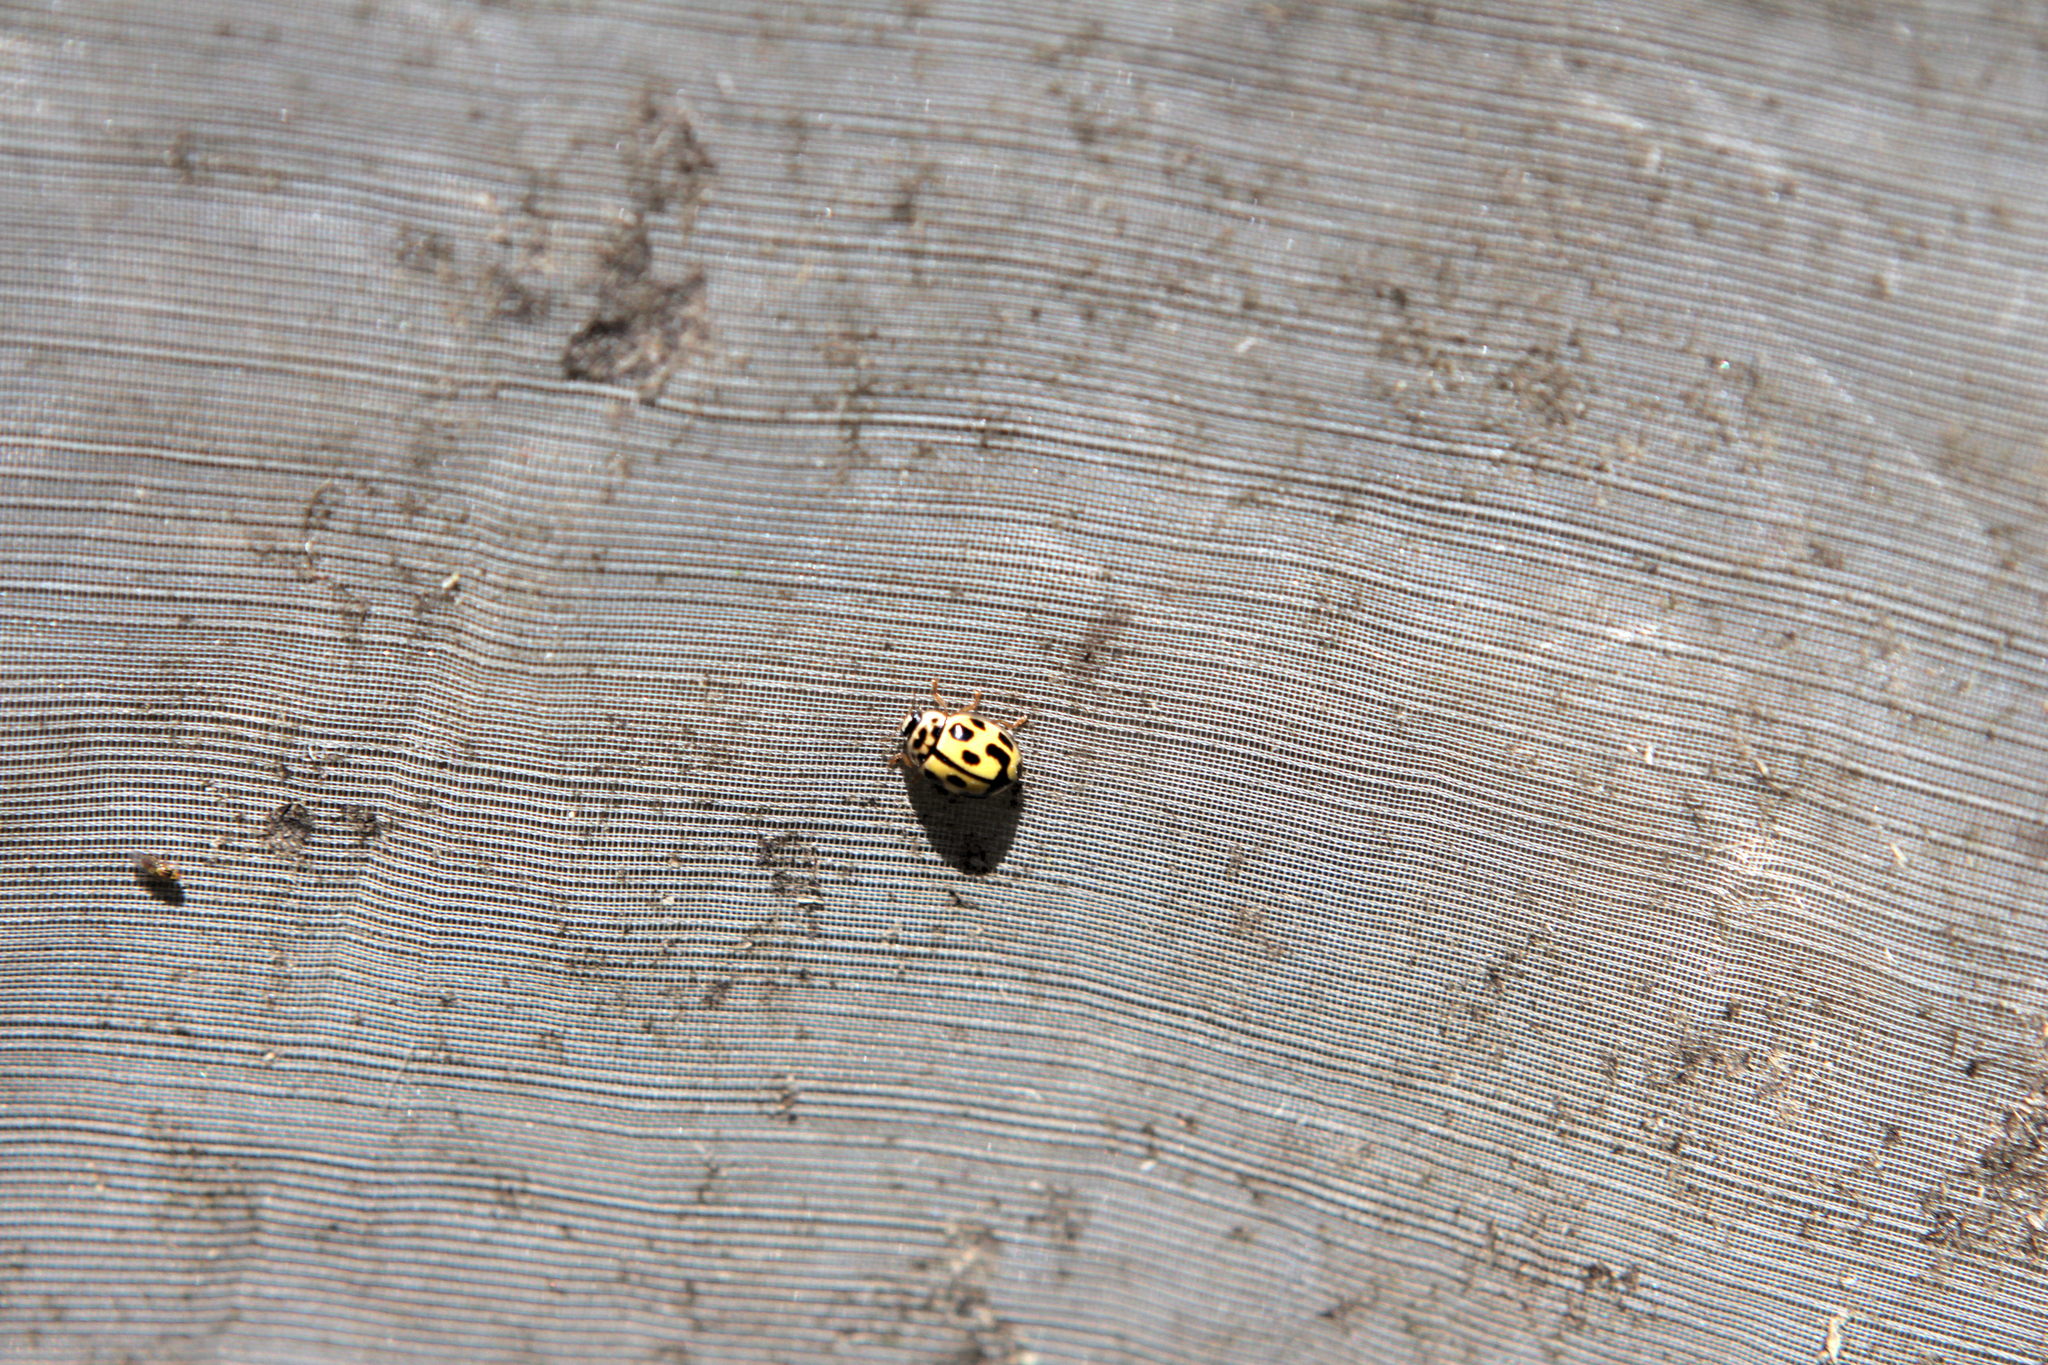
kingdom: Animalia
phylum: Arthropoda
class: Insecta
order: Coleoptera
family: Coccinellidae
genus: Propylaea
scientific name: Propylaea quatuordecimpunctata
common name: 14-spotted ladybird beetle
